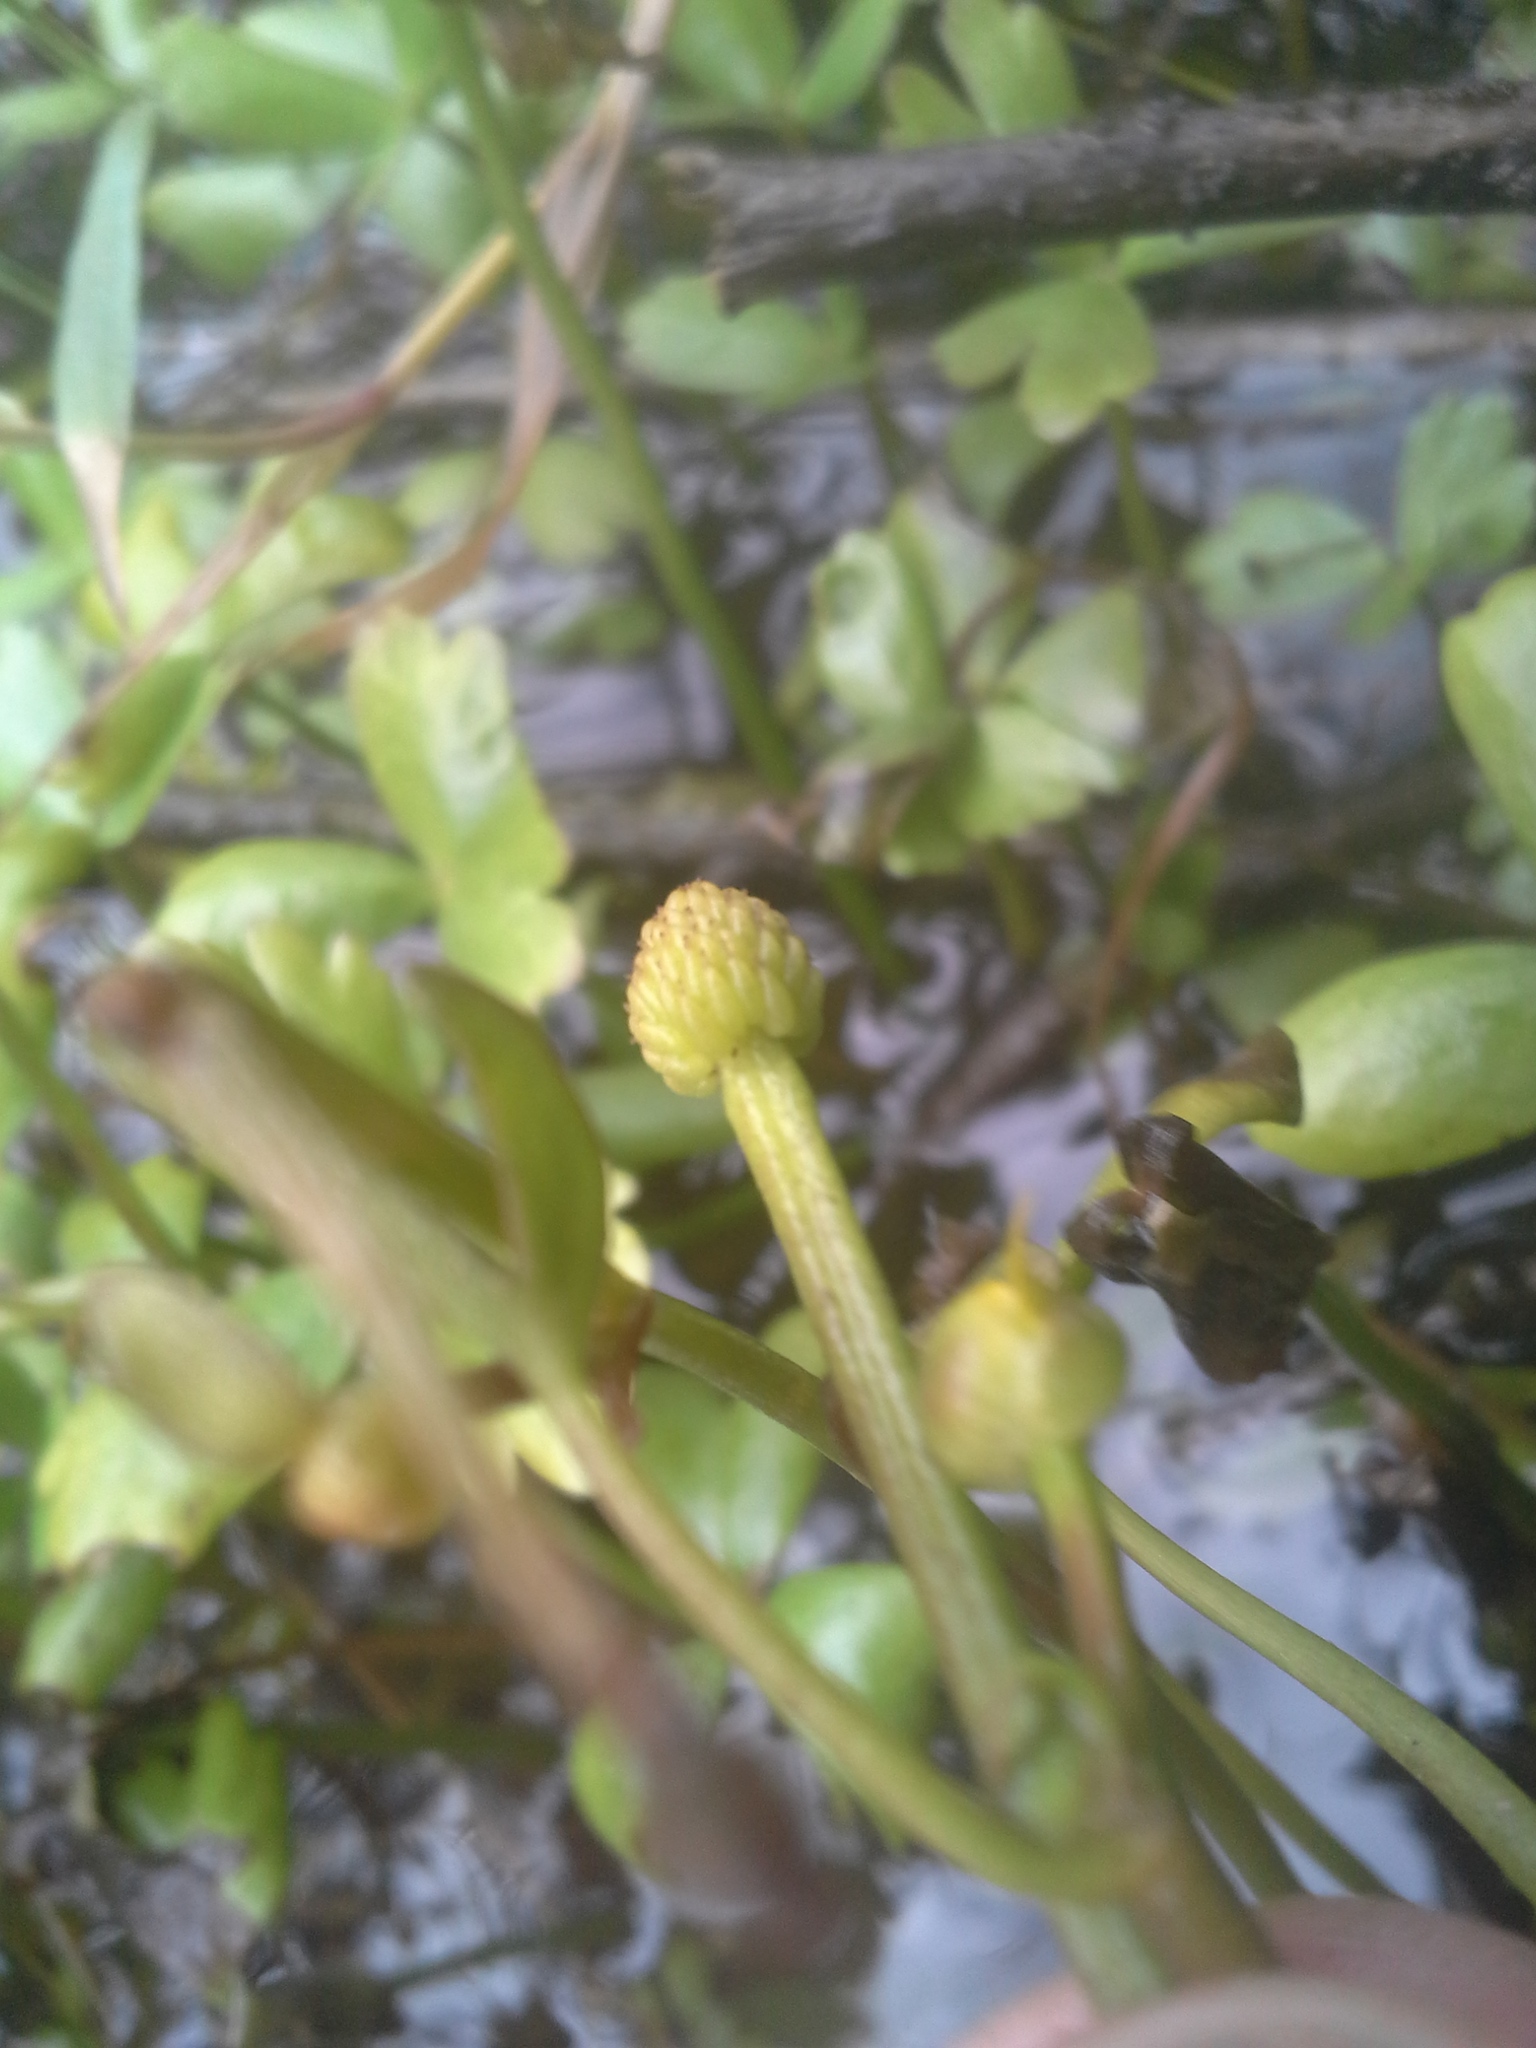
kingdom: Plantae
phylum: Tracheophyta
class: Magnoliopsida
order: Ranunculales
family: Ranunculaceae
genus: Ranunculus
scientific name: Ranunculus macropus
